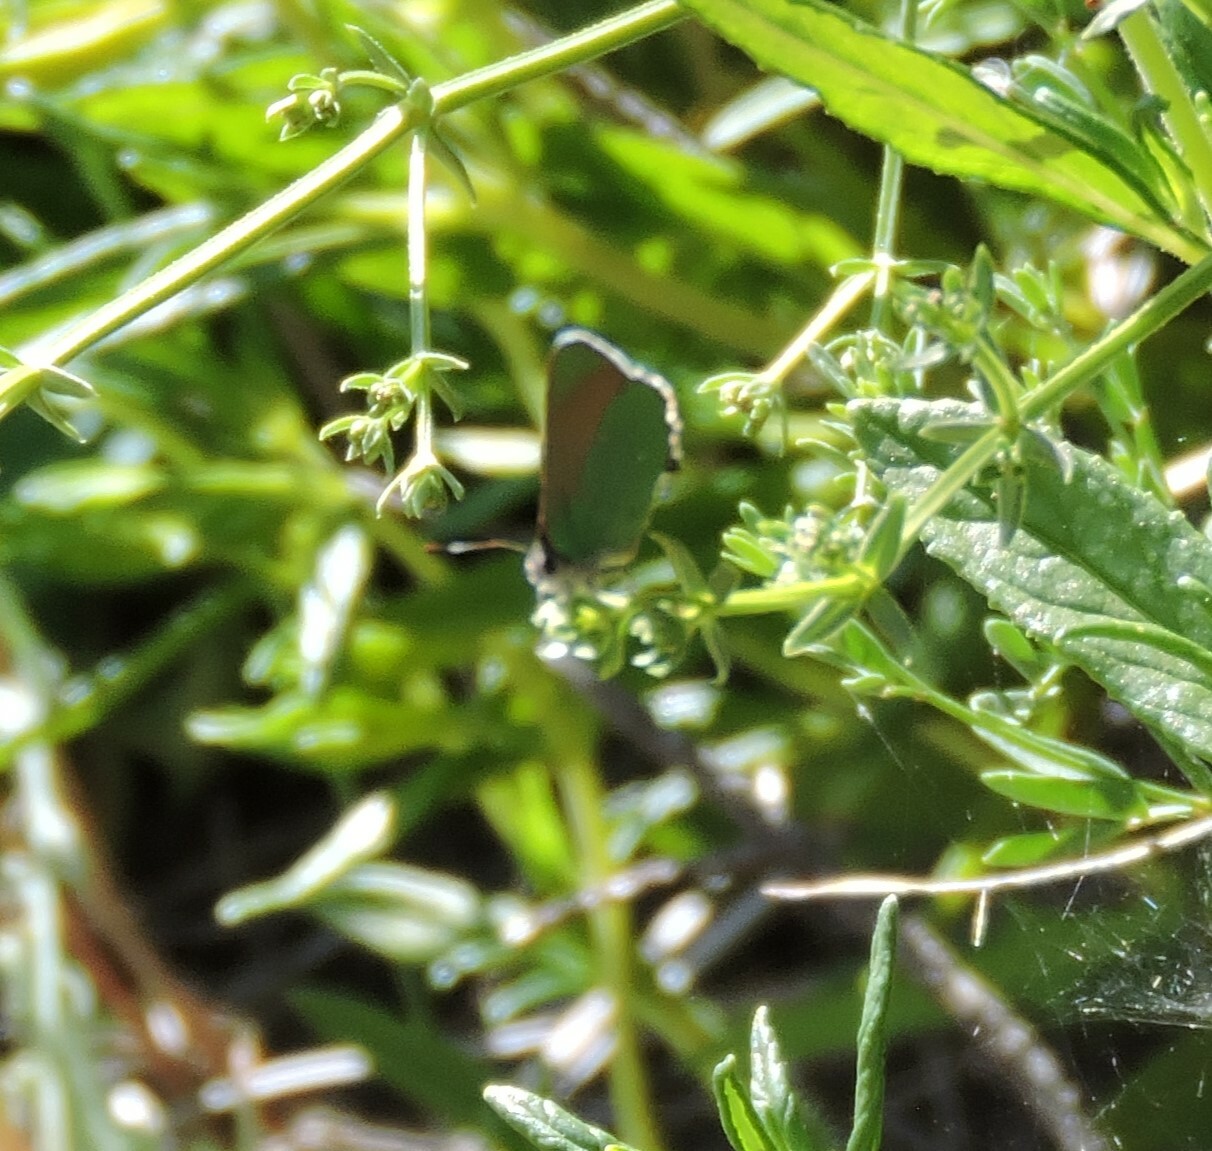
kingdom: Animalia
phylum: Arthropoda
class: Insecta
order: Lepidoptera
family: Lycaenidae
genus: Callophrys
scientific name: Callophrys dumetorum
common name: Bramble hairstreak
